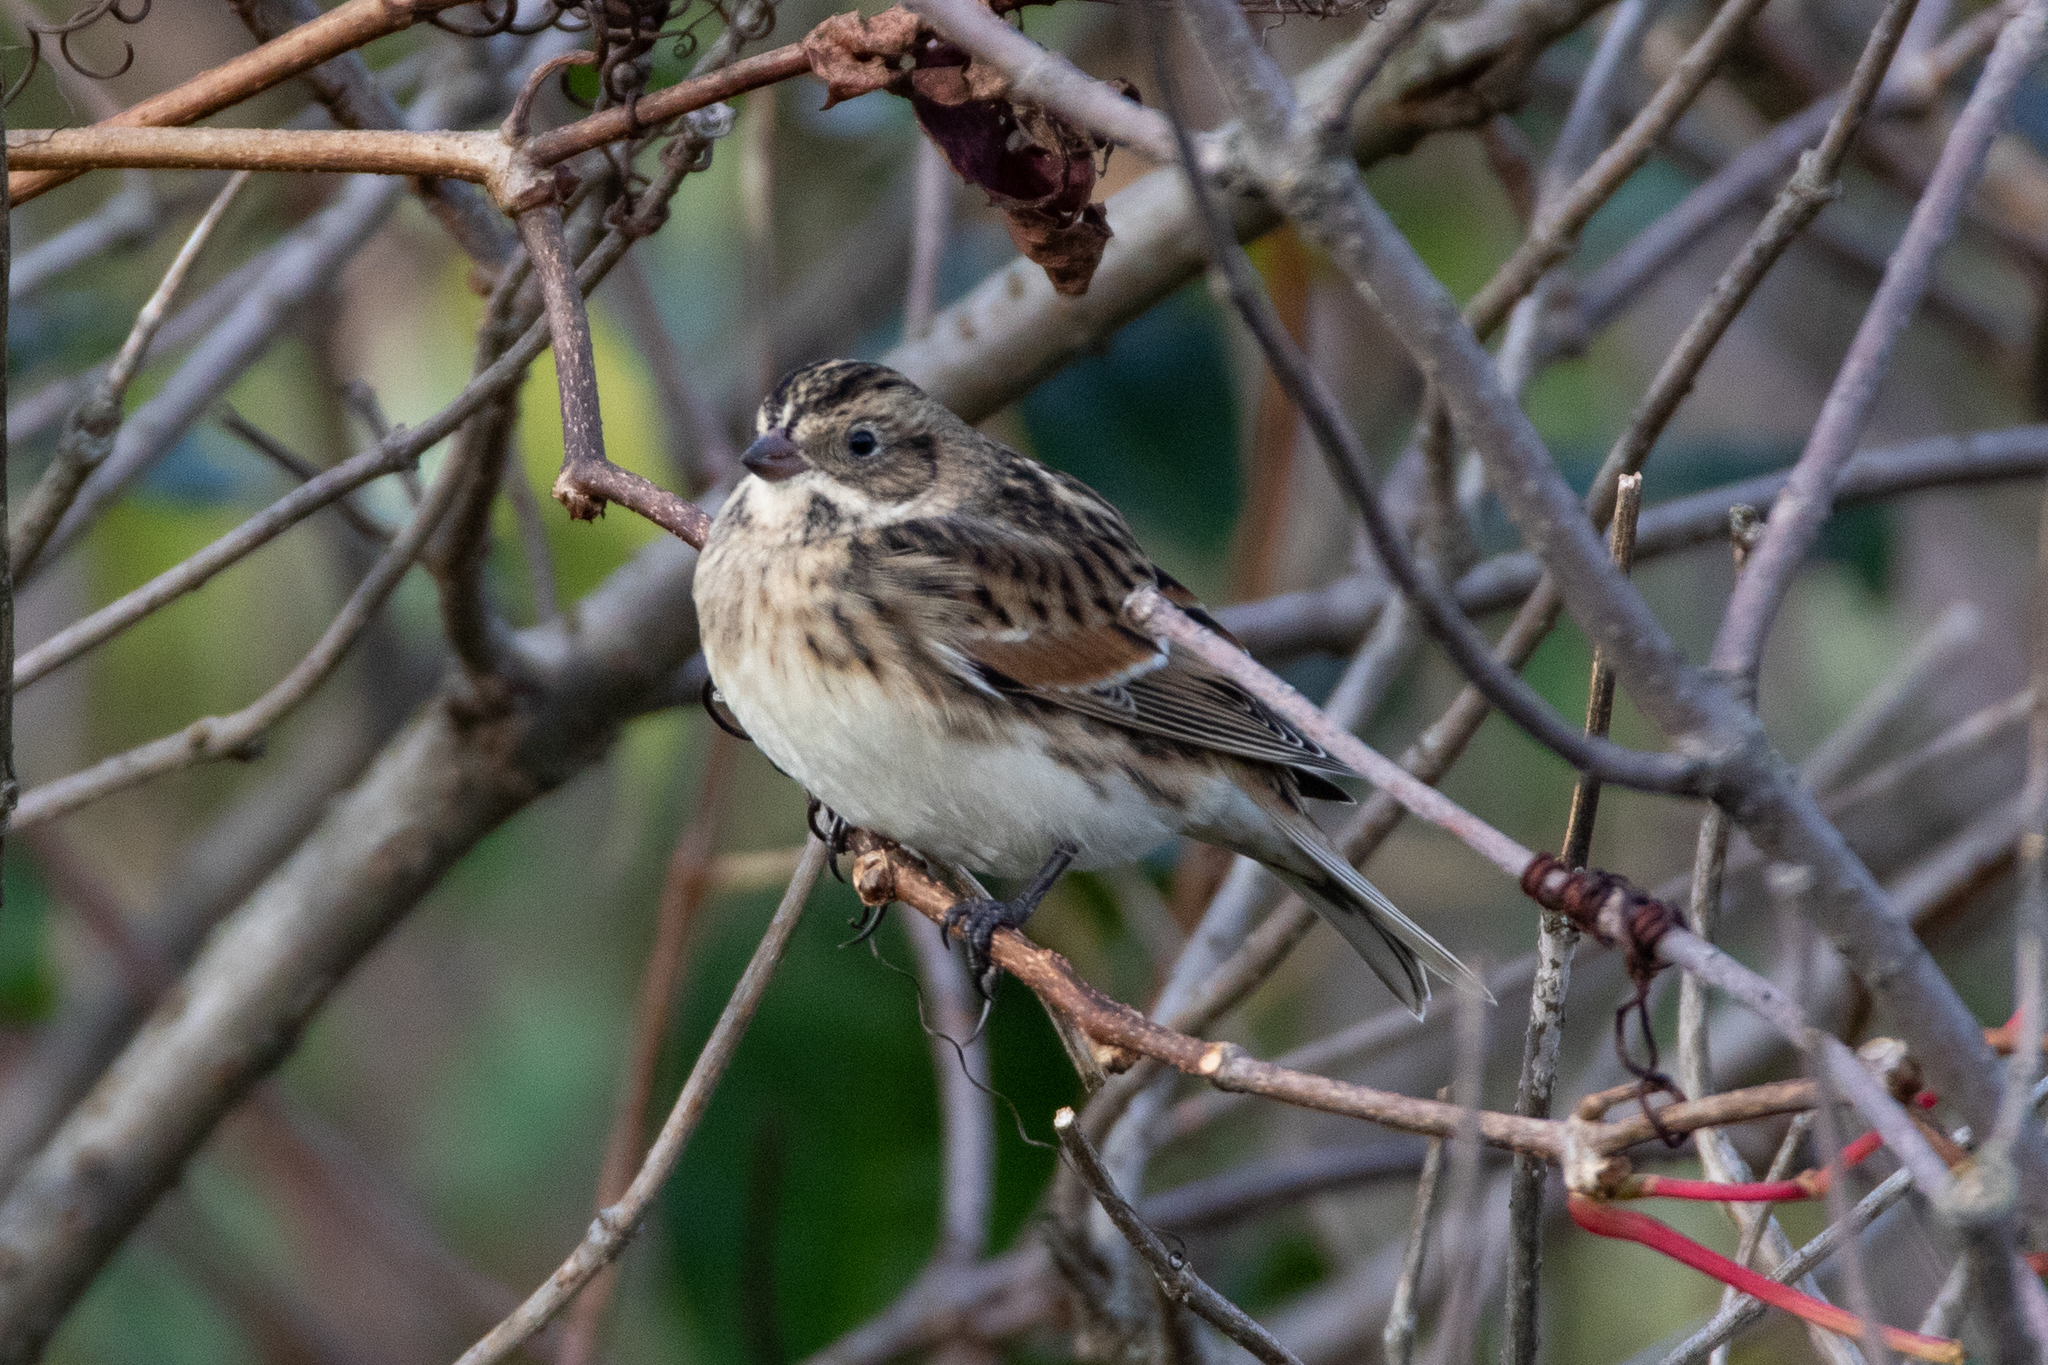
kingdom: Animalia
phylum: Chordata
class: Aves
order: Passeriformes
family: Calcariidae
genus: Calcarius
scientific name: Calcarius lapponicus
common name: Lapland longspur
